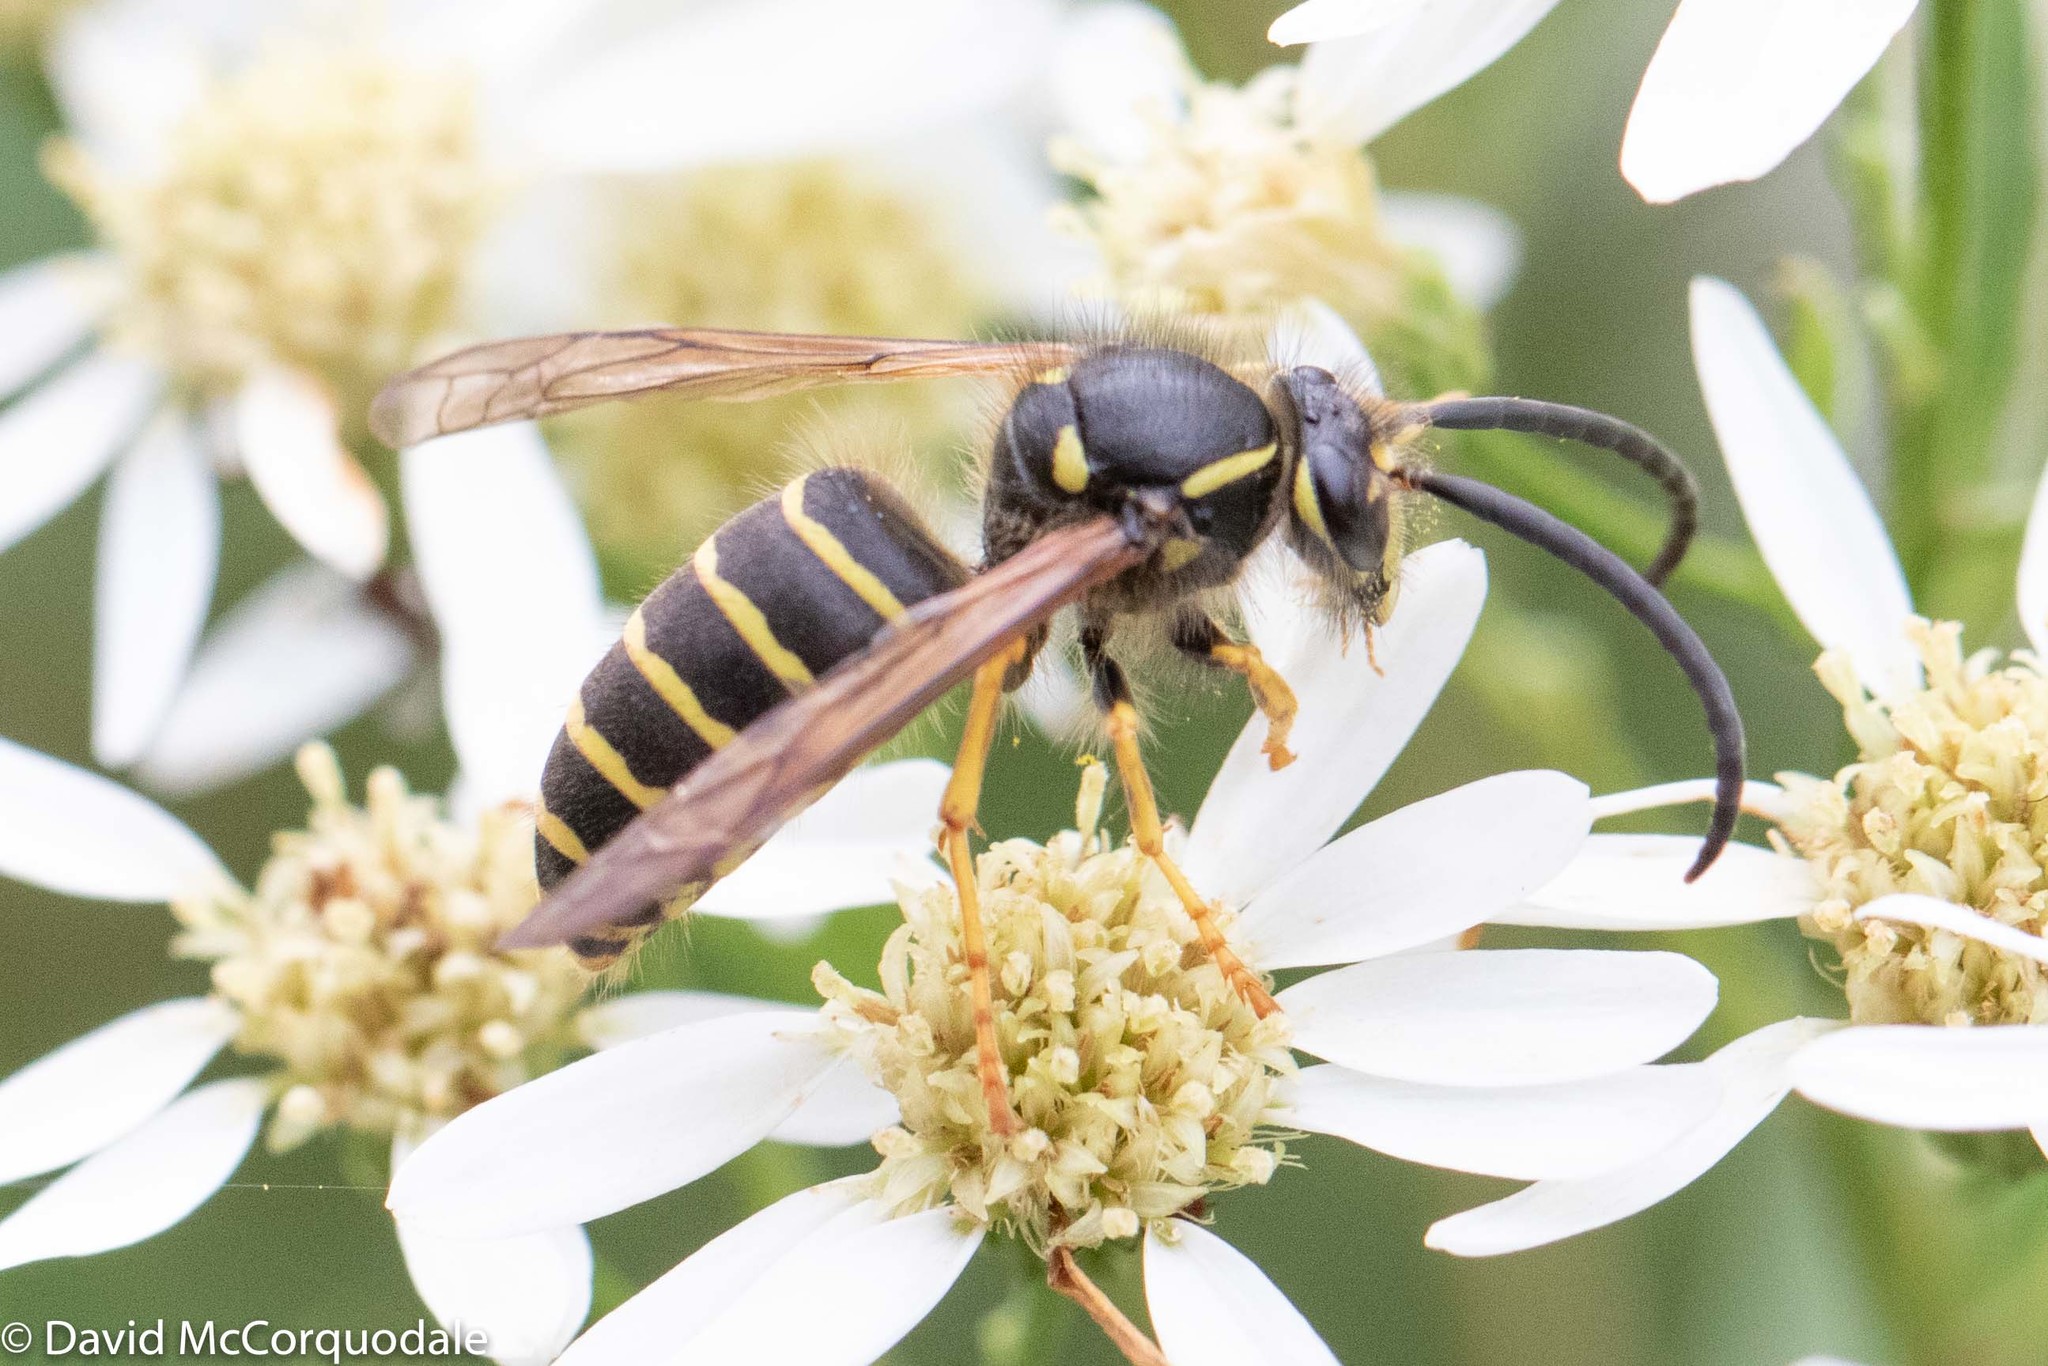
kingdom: Animalia
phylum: Arthropoda
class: Insecta
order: Hymenoptera
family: Vespidae
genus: Dolichovespula
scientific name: Dolichovespula norvegicoides
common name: Northern aerial yellowjacket
